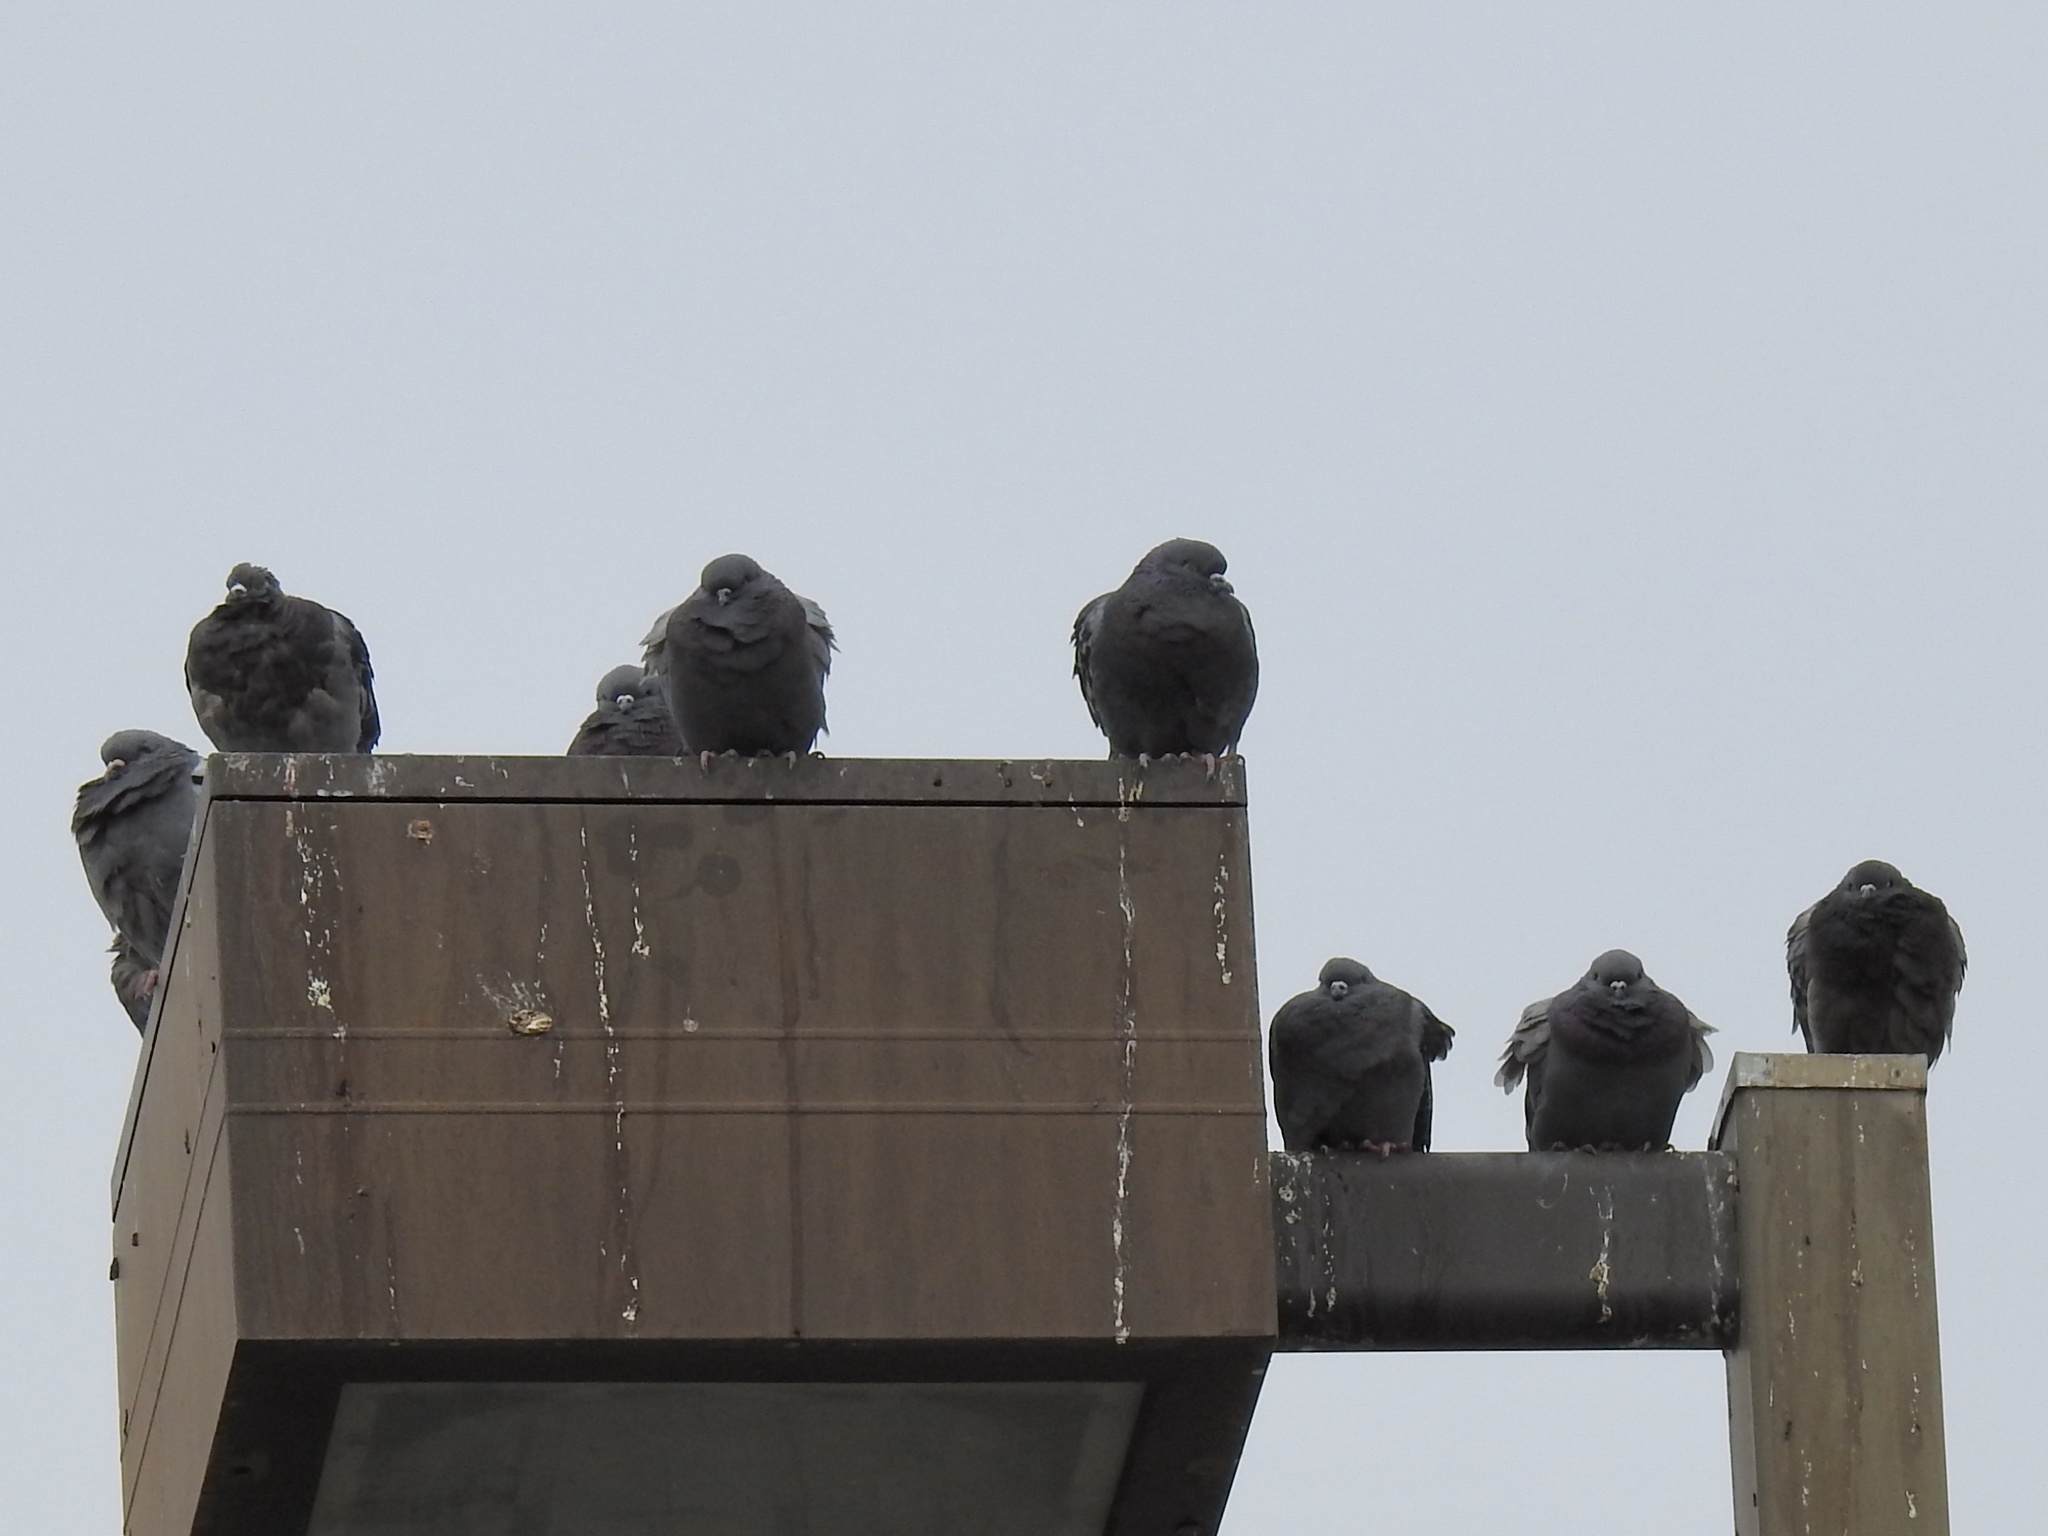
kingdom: Animalia
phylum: Chordata
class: Aves
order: Columbiformes
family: Columbidae
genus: Columba
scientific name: Columba livia
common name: Rock pigeon
